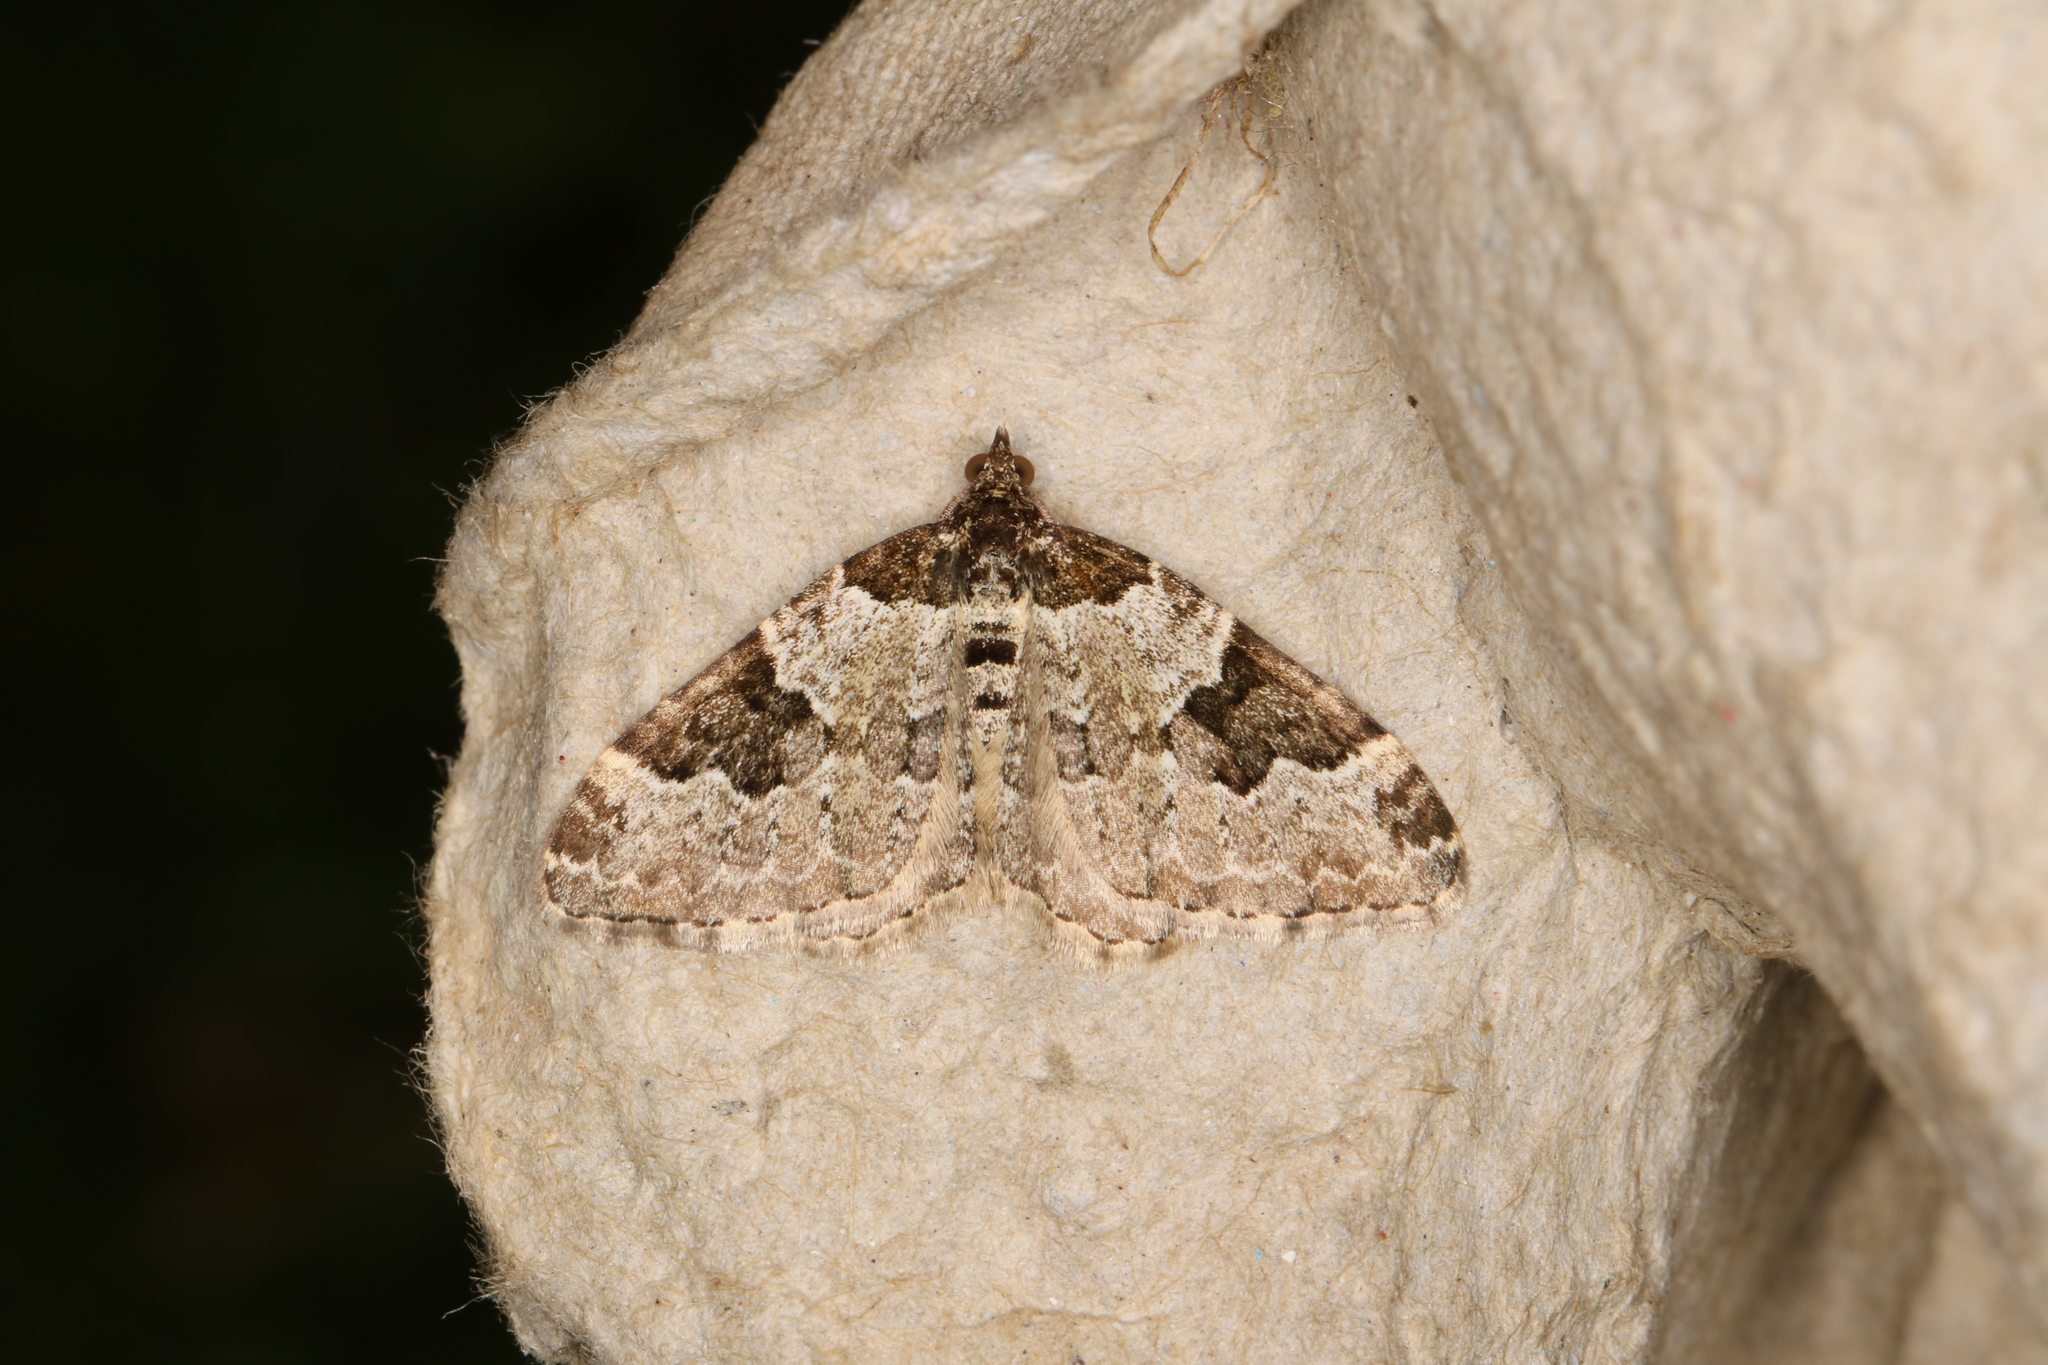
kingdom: Animalia
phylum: Arthropoda
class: Insecta
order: Lepidoptera
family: Geometridae
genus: Xanthorhoe
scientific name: Xanthorhoe fluctuata
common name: Garden carpet
